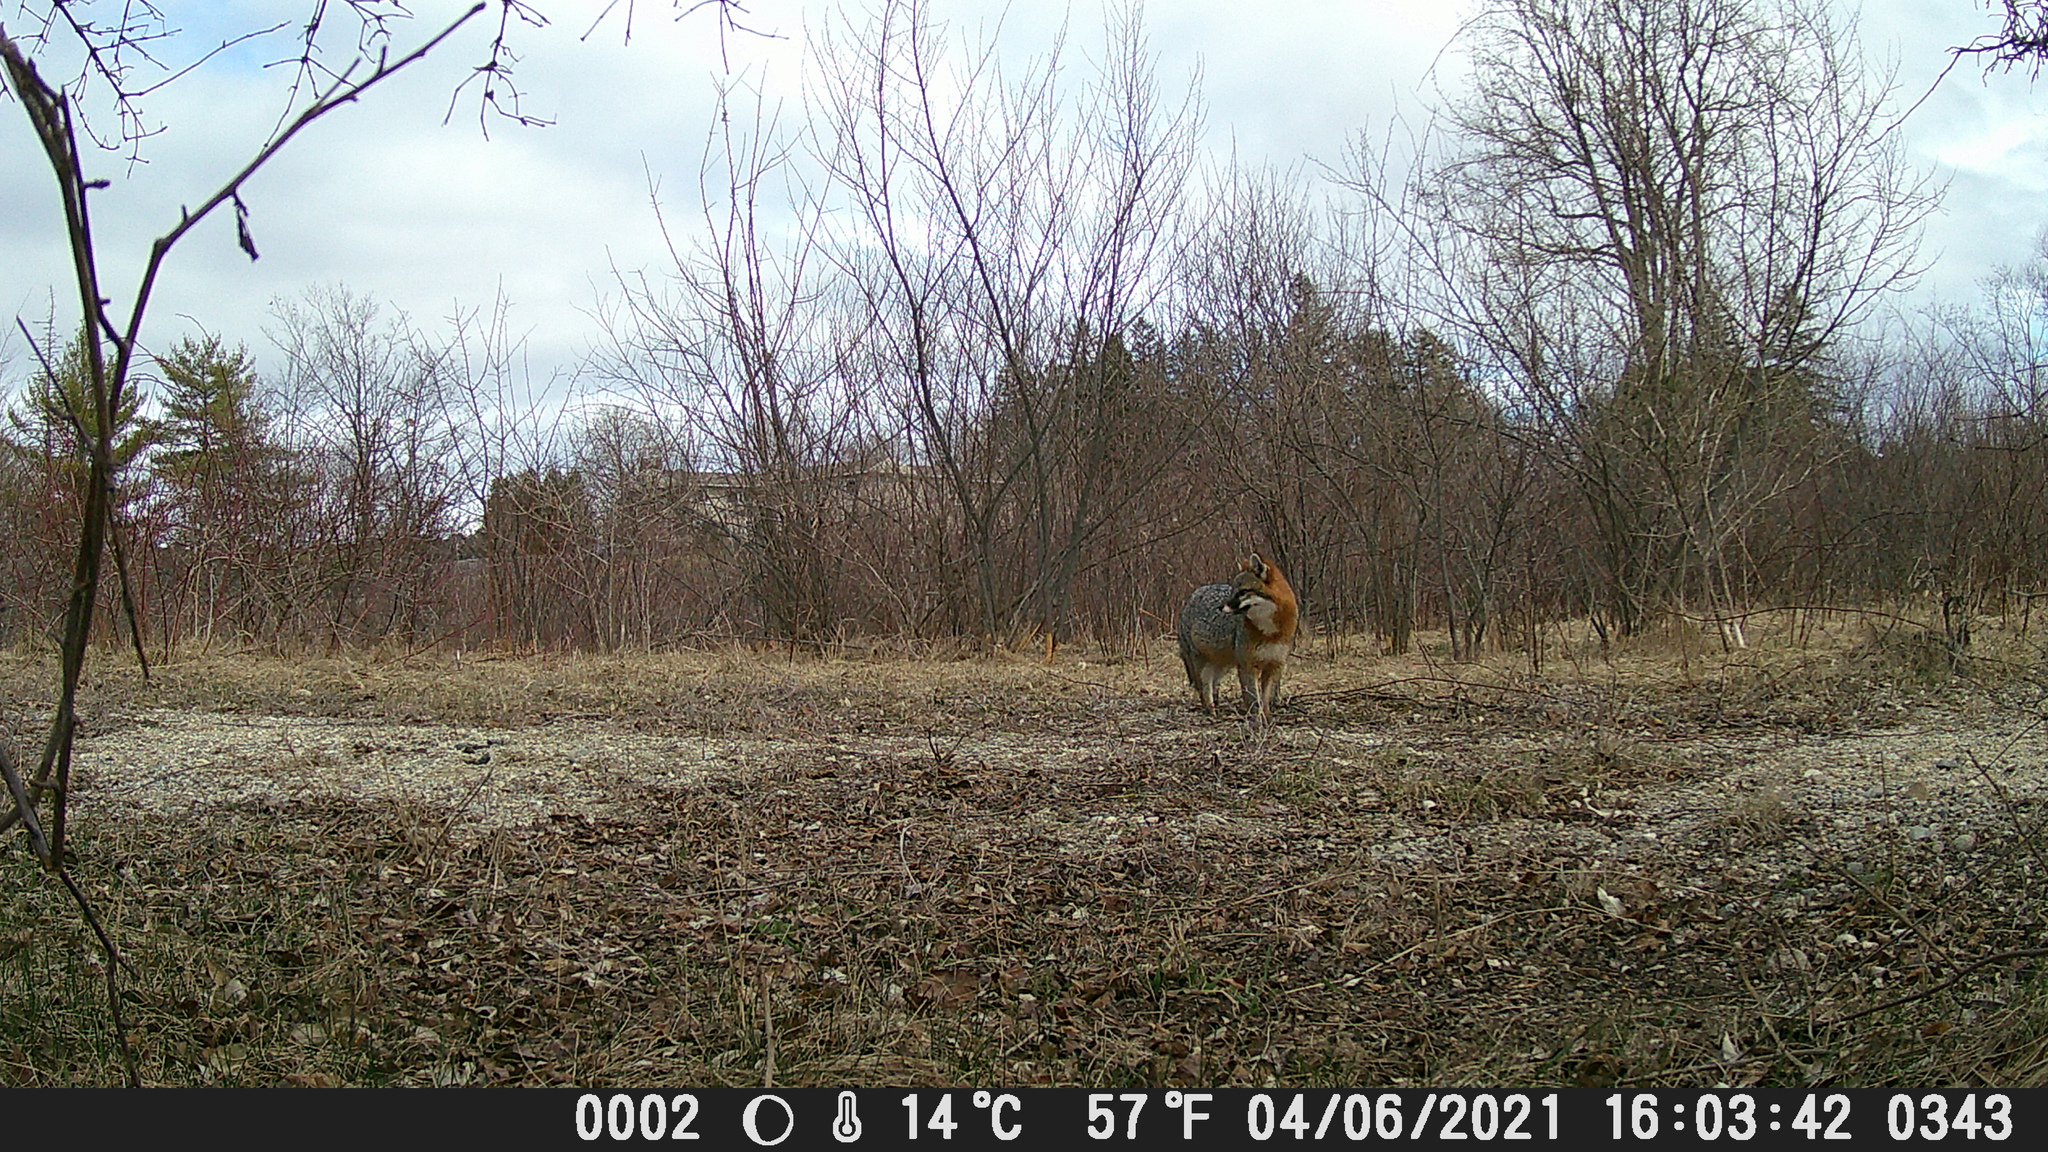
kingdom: Animalia
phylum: Chordata
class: Mammalia
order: Carnivora
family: Canidae
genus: Urocyon
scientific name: Urocyon cinereoargenteus
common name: Gray fox
